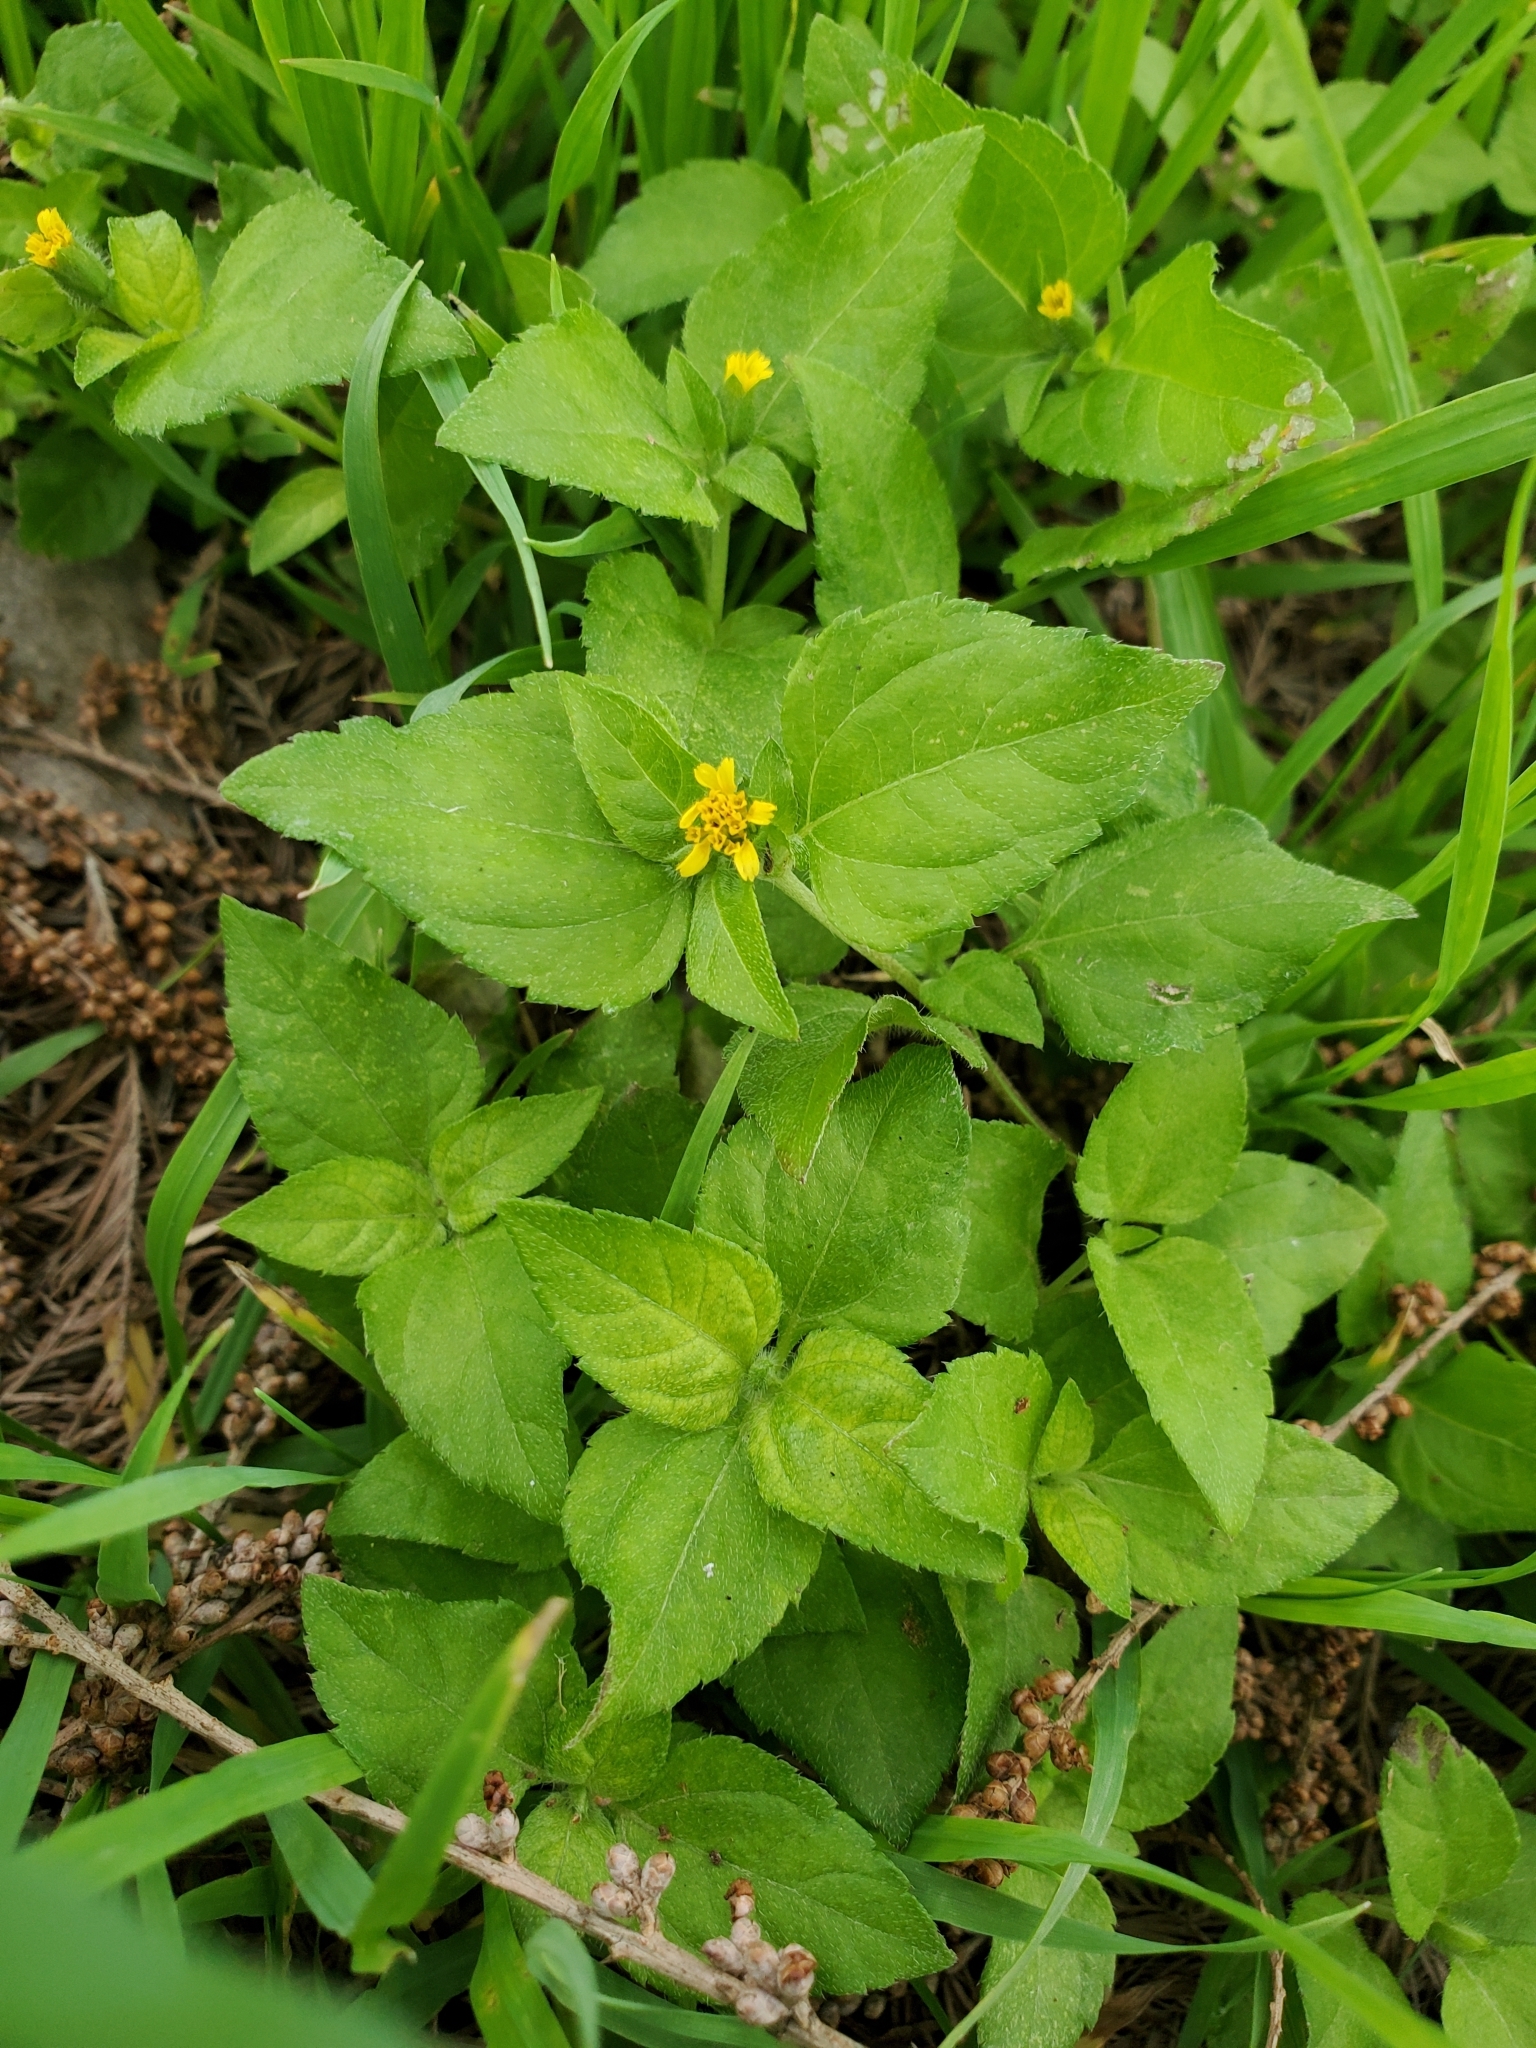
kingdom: Plantae
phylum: Tracheophyta
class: Magnoliopsida
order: Asterales
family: Asteraceae
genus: Calyptocarpus
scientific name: Calyptocarpus vialis
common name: Straggler daisy
